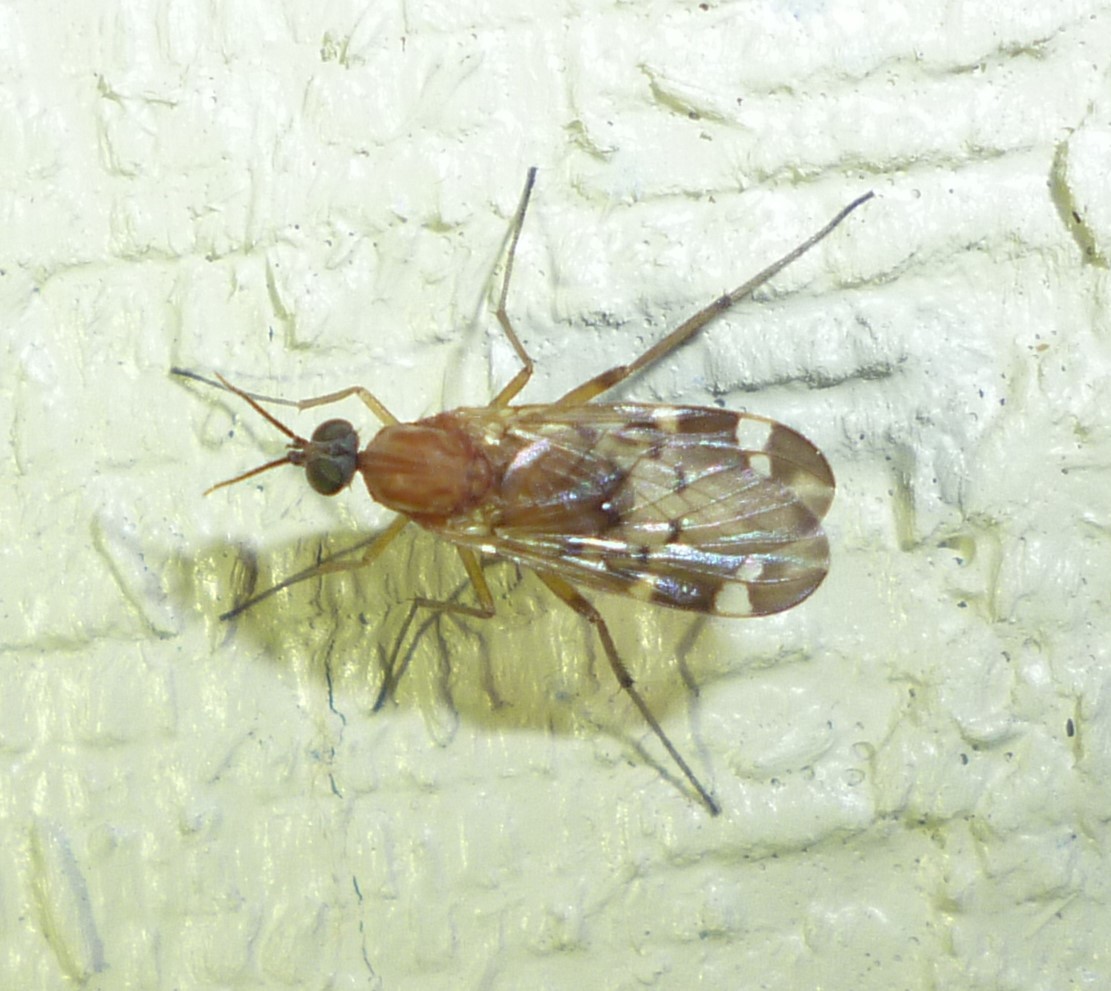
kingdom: Animalia
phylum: Arthropoda
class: Insecta
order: Diptera
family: Anisopodidae
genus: Sylvicola
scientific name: Sylvicola alternata
